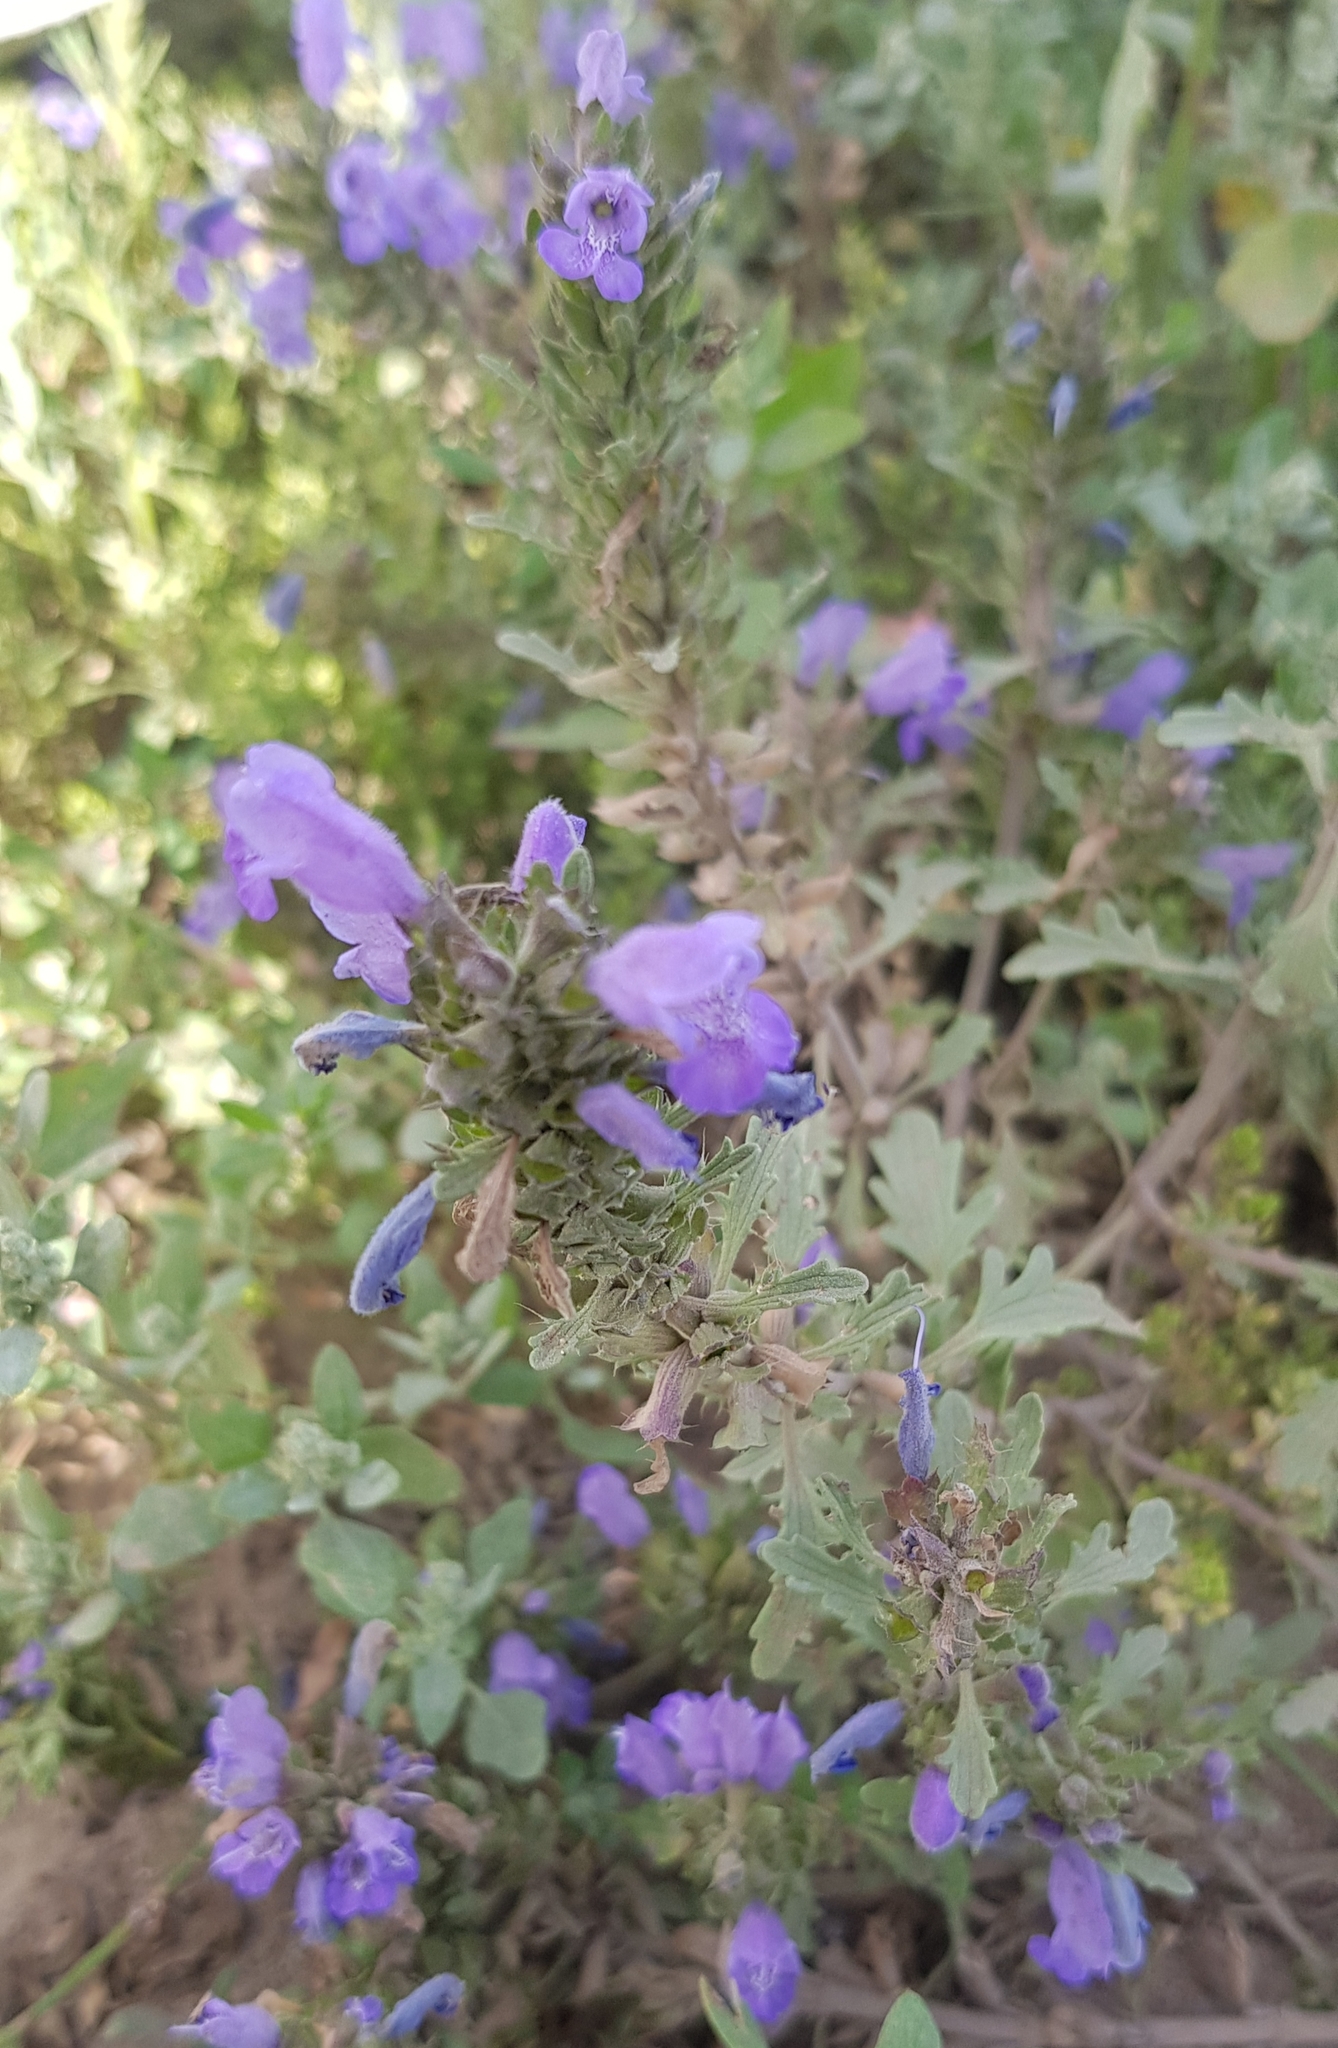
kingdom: Plantae
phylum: Tracheophyta
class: Magnoliopsida
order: Lamiales
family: Lamiaceae
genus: Dracocephalum
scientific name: Dracocephalum foetidum
